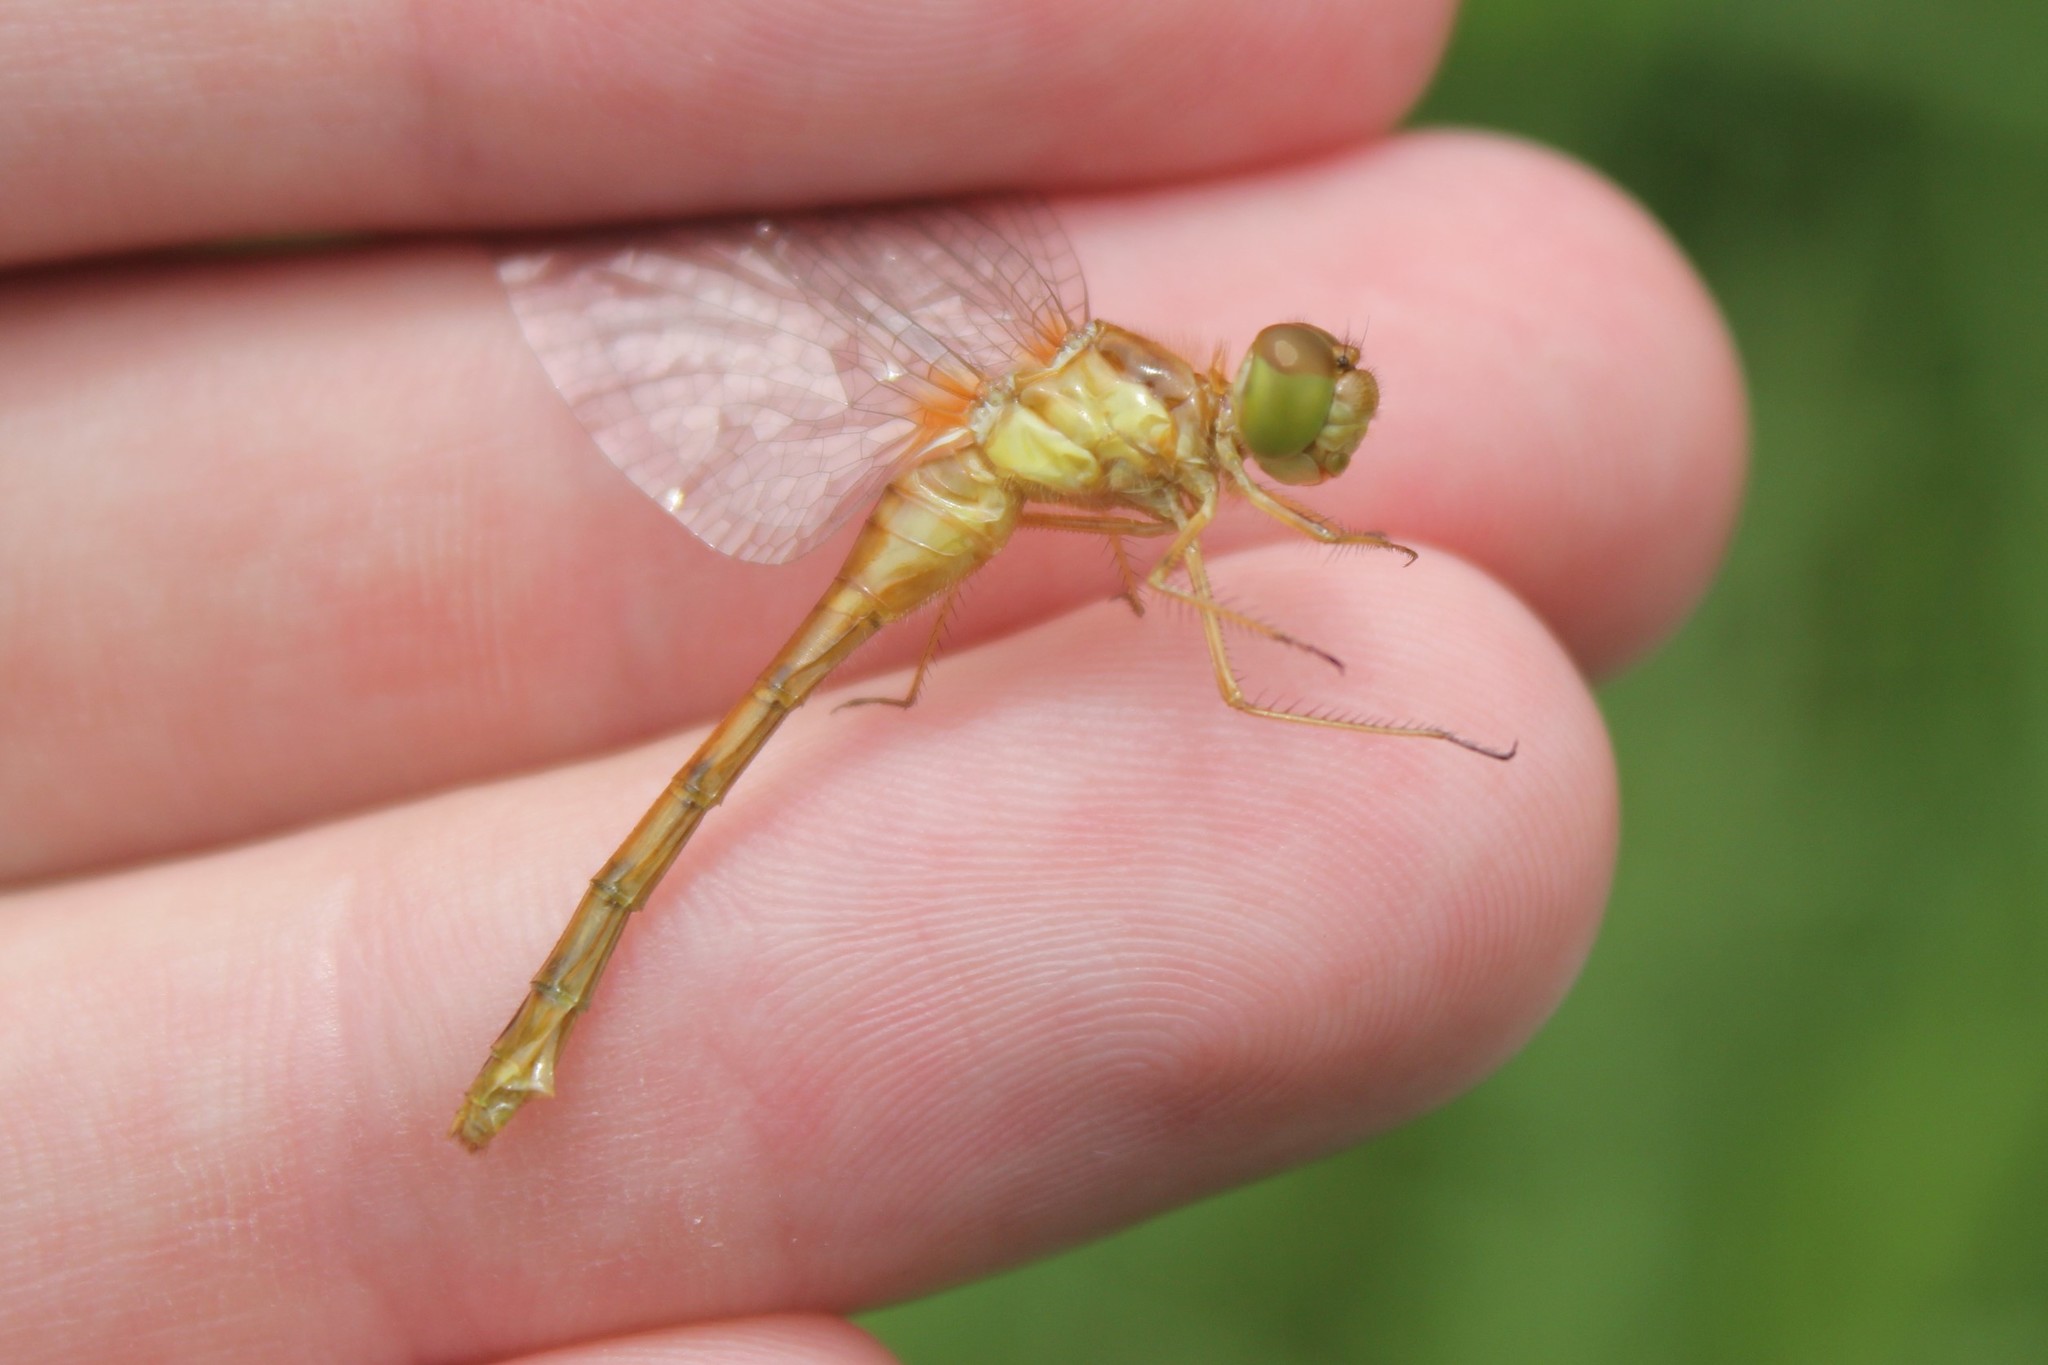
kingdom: Animalia
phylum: Arthropoda
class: Insecta
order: Odonata
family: Libellulidae
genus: Sympetrum
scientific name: Sympetrum vicinum
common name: Autumn meadowhawk
